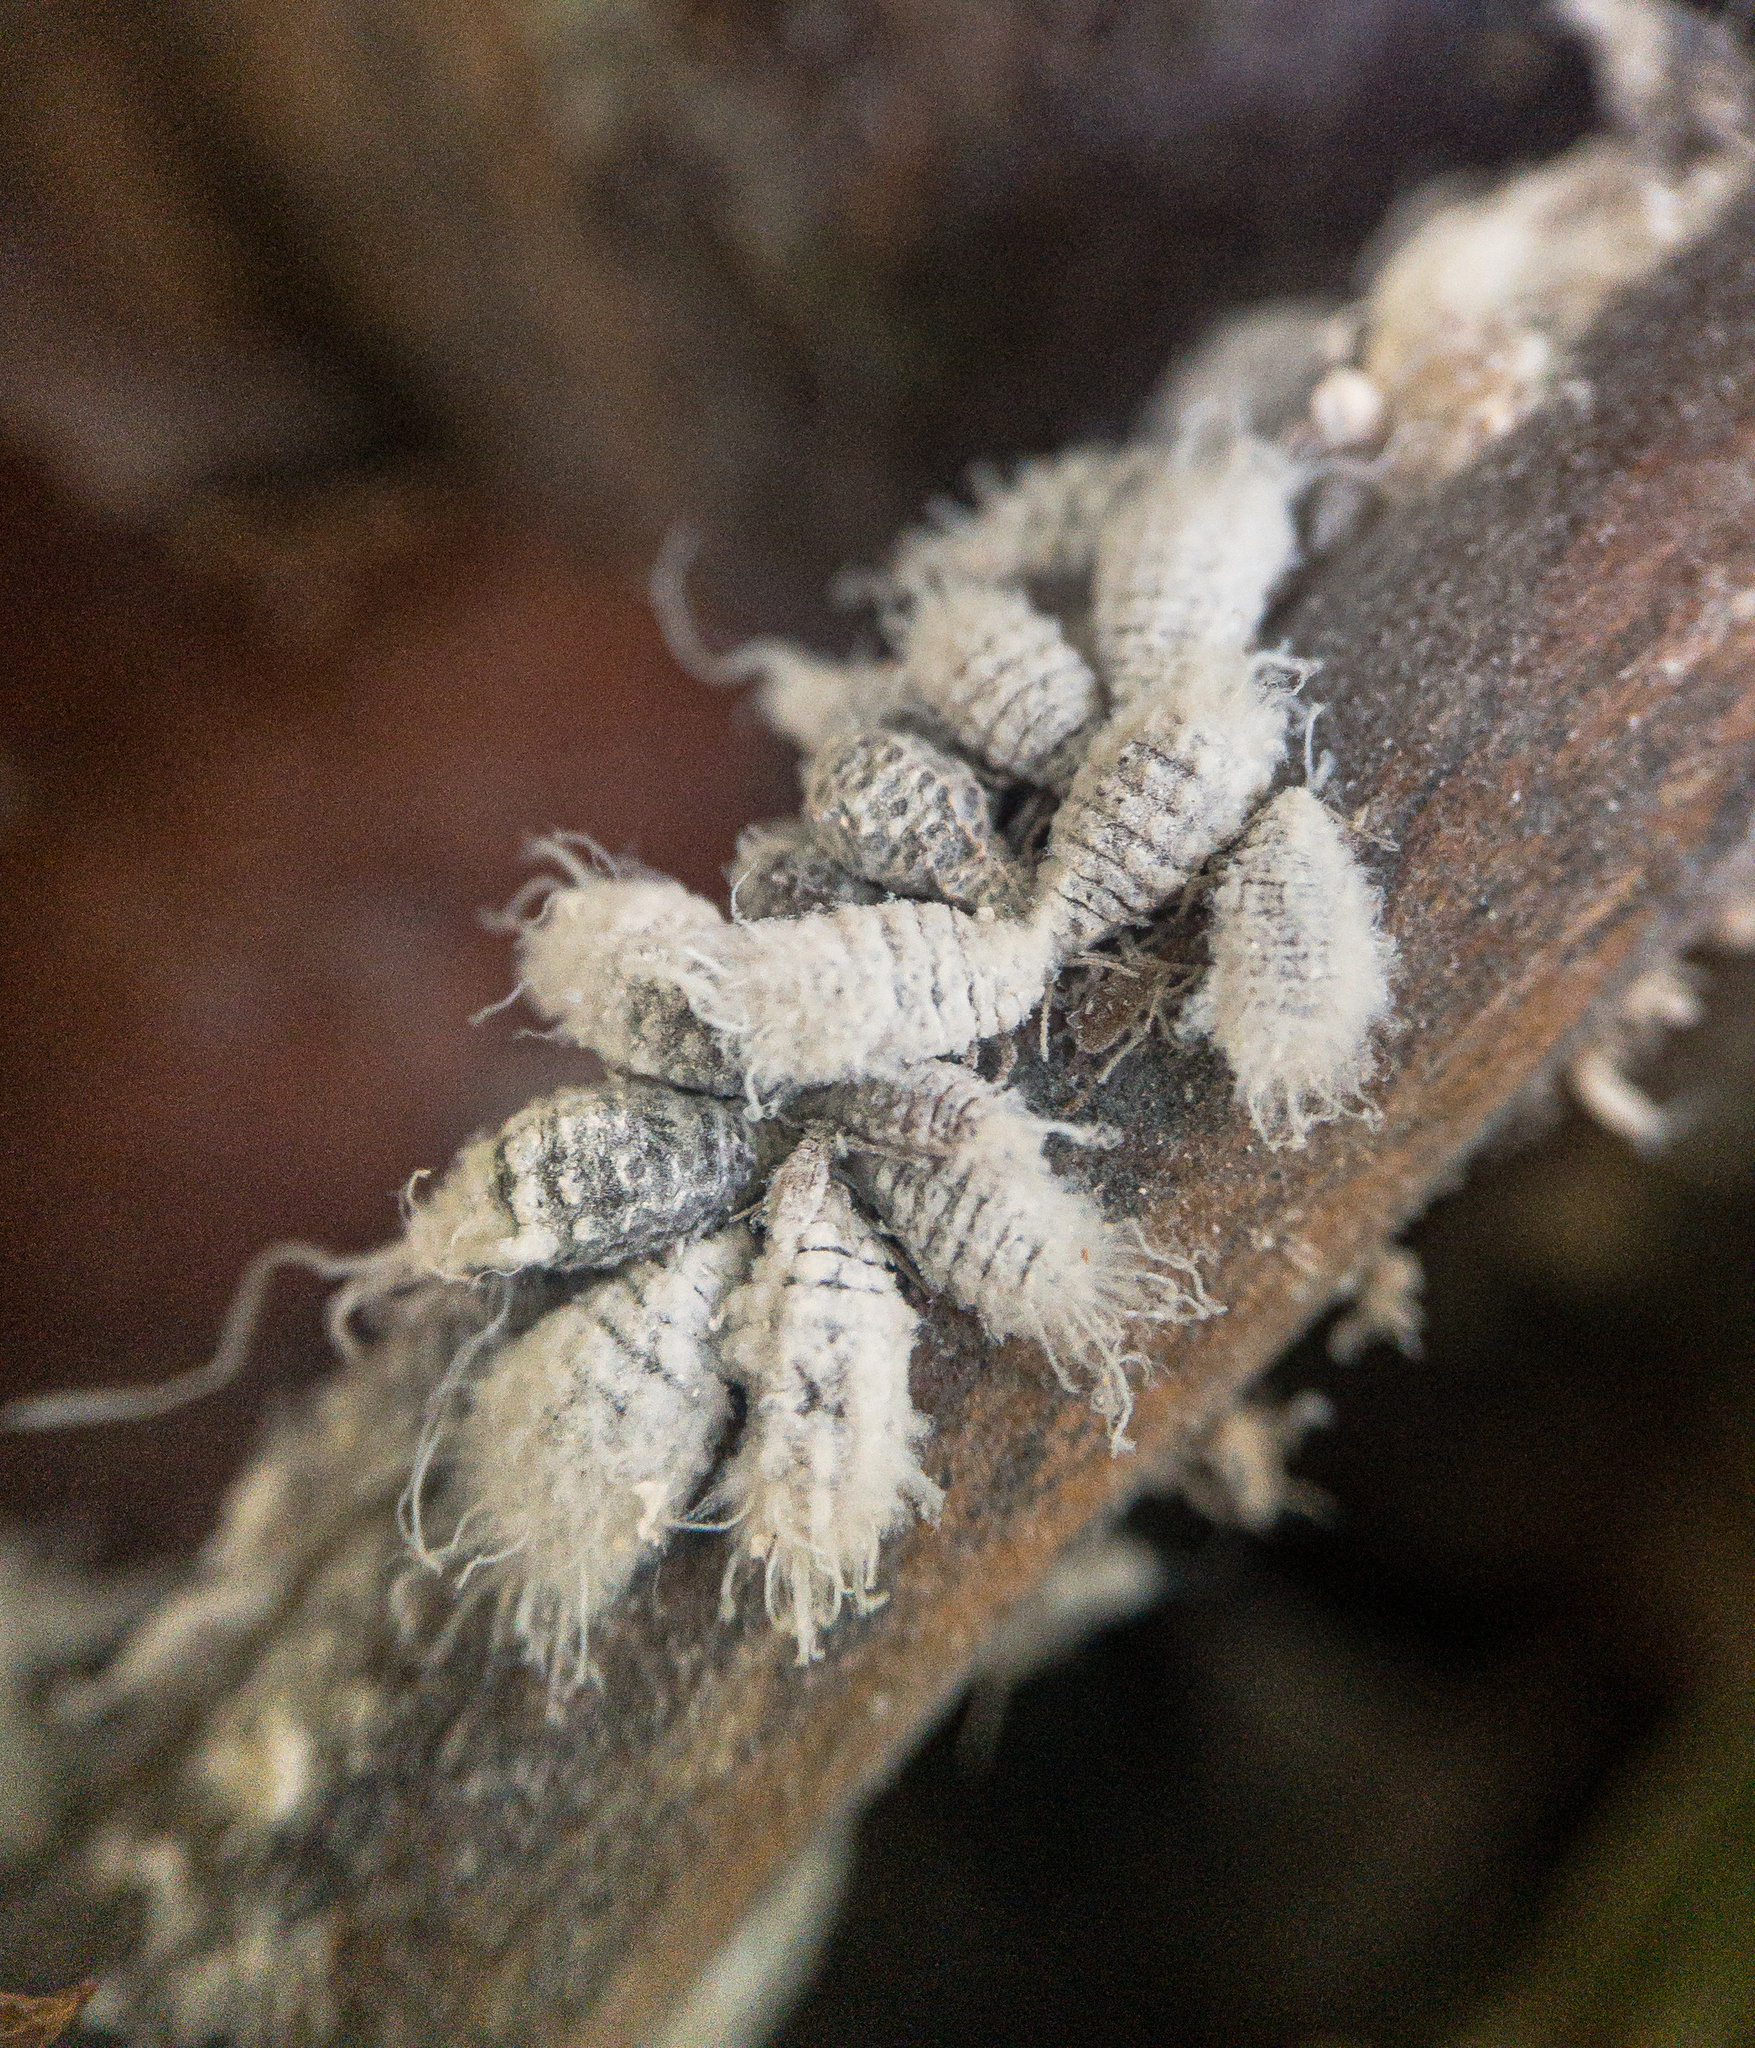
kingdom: Animalia
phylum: Arthropoda
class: Insecta
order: Hemiptera
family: Aphididae
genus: Prociphilus
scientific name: Prociphilus tessellatus
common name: Woolly alder aphid
